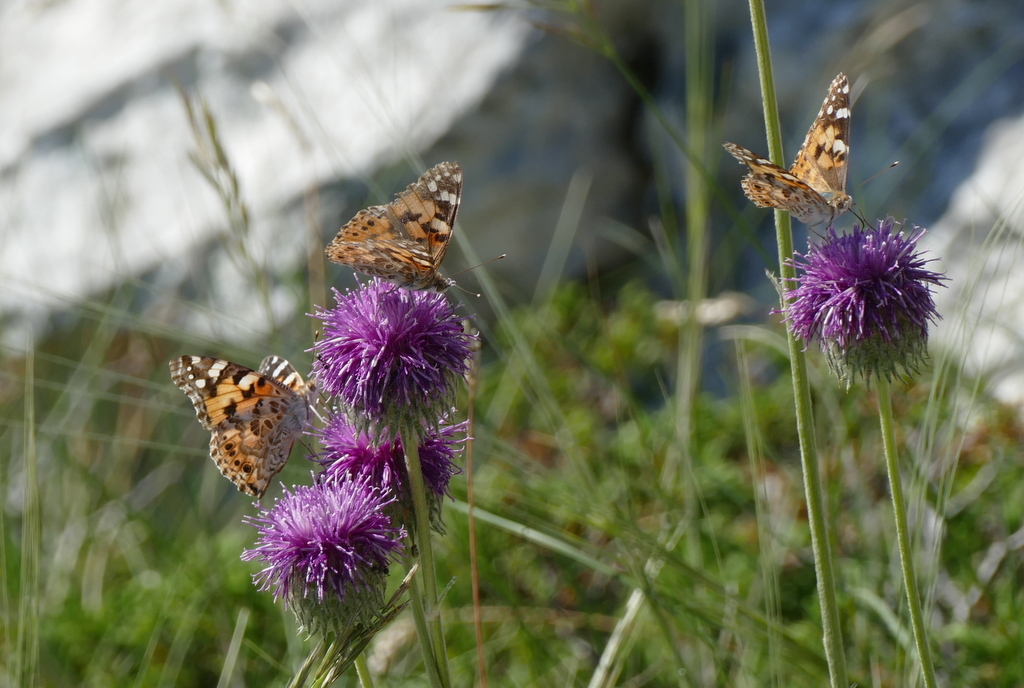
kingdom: Animalia
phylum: Arthropoda
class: Insecta
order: Lepidoptera
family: Nymphalidae
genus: Vanessa
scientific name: Vanessa cardui
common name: Painted lady
